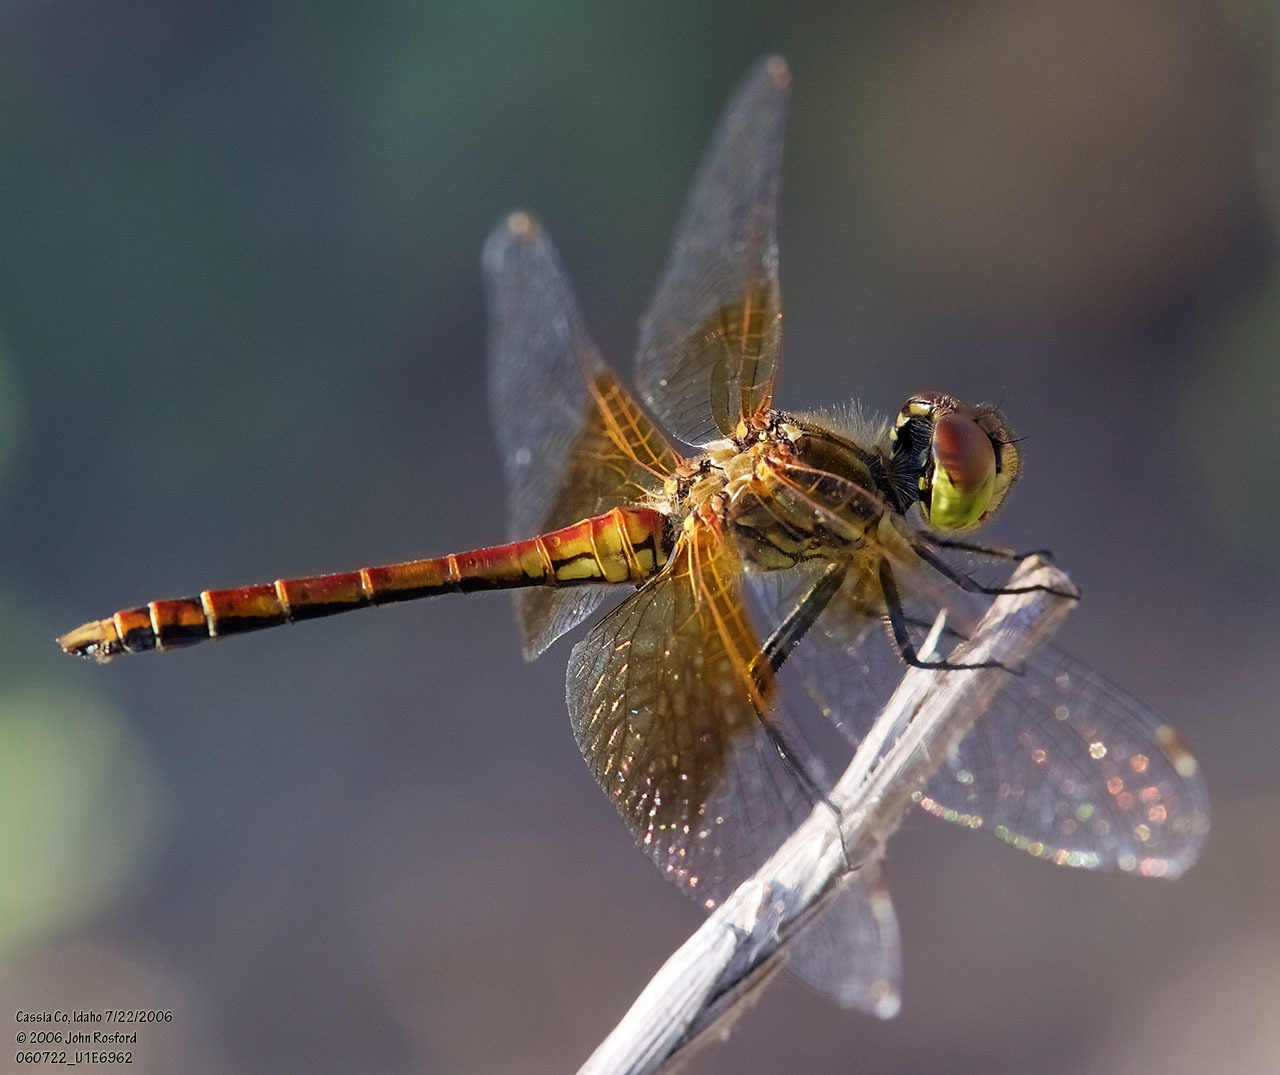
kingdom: Animalia
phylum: Arthropoda
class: Insecta
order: Odonata
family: Libellulidae
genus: Sympetrum
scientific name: Sympetrum semicinctum
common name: Band-winged meadowhawk
